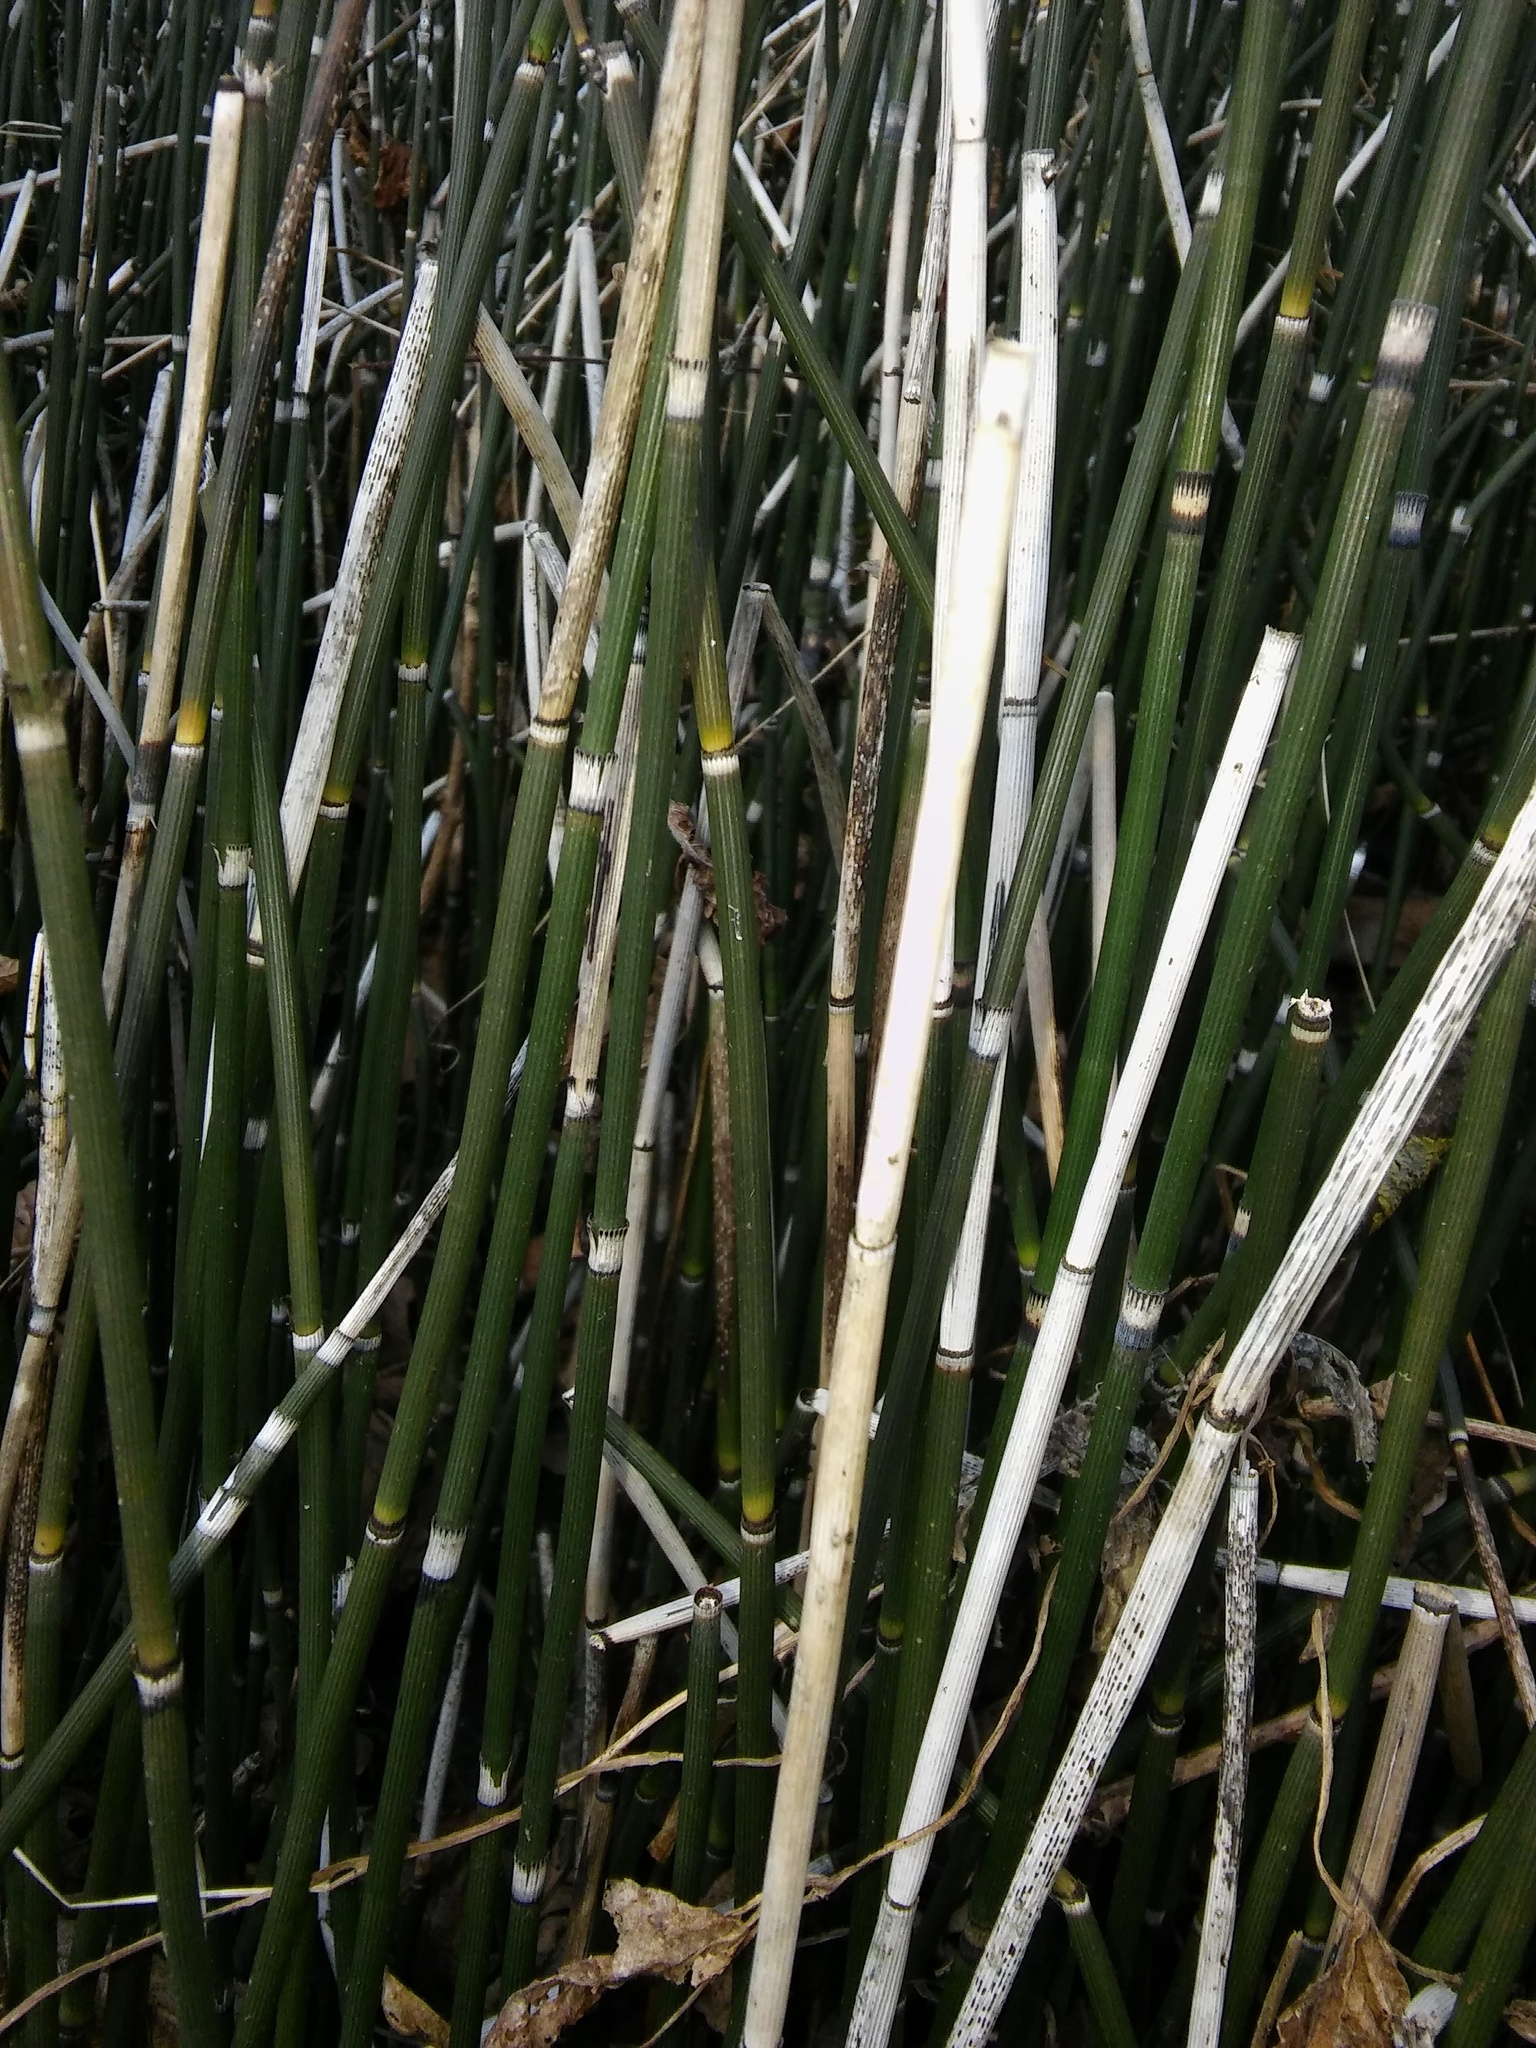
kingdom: Fungi
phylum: Ascomycota
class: Leotiomycetes
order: Helotiales
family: Helotiaceae
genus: Stamnaria
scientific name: Stamnaria americana
